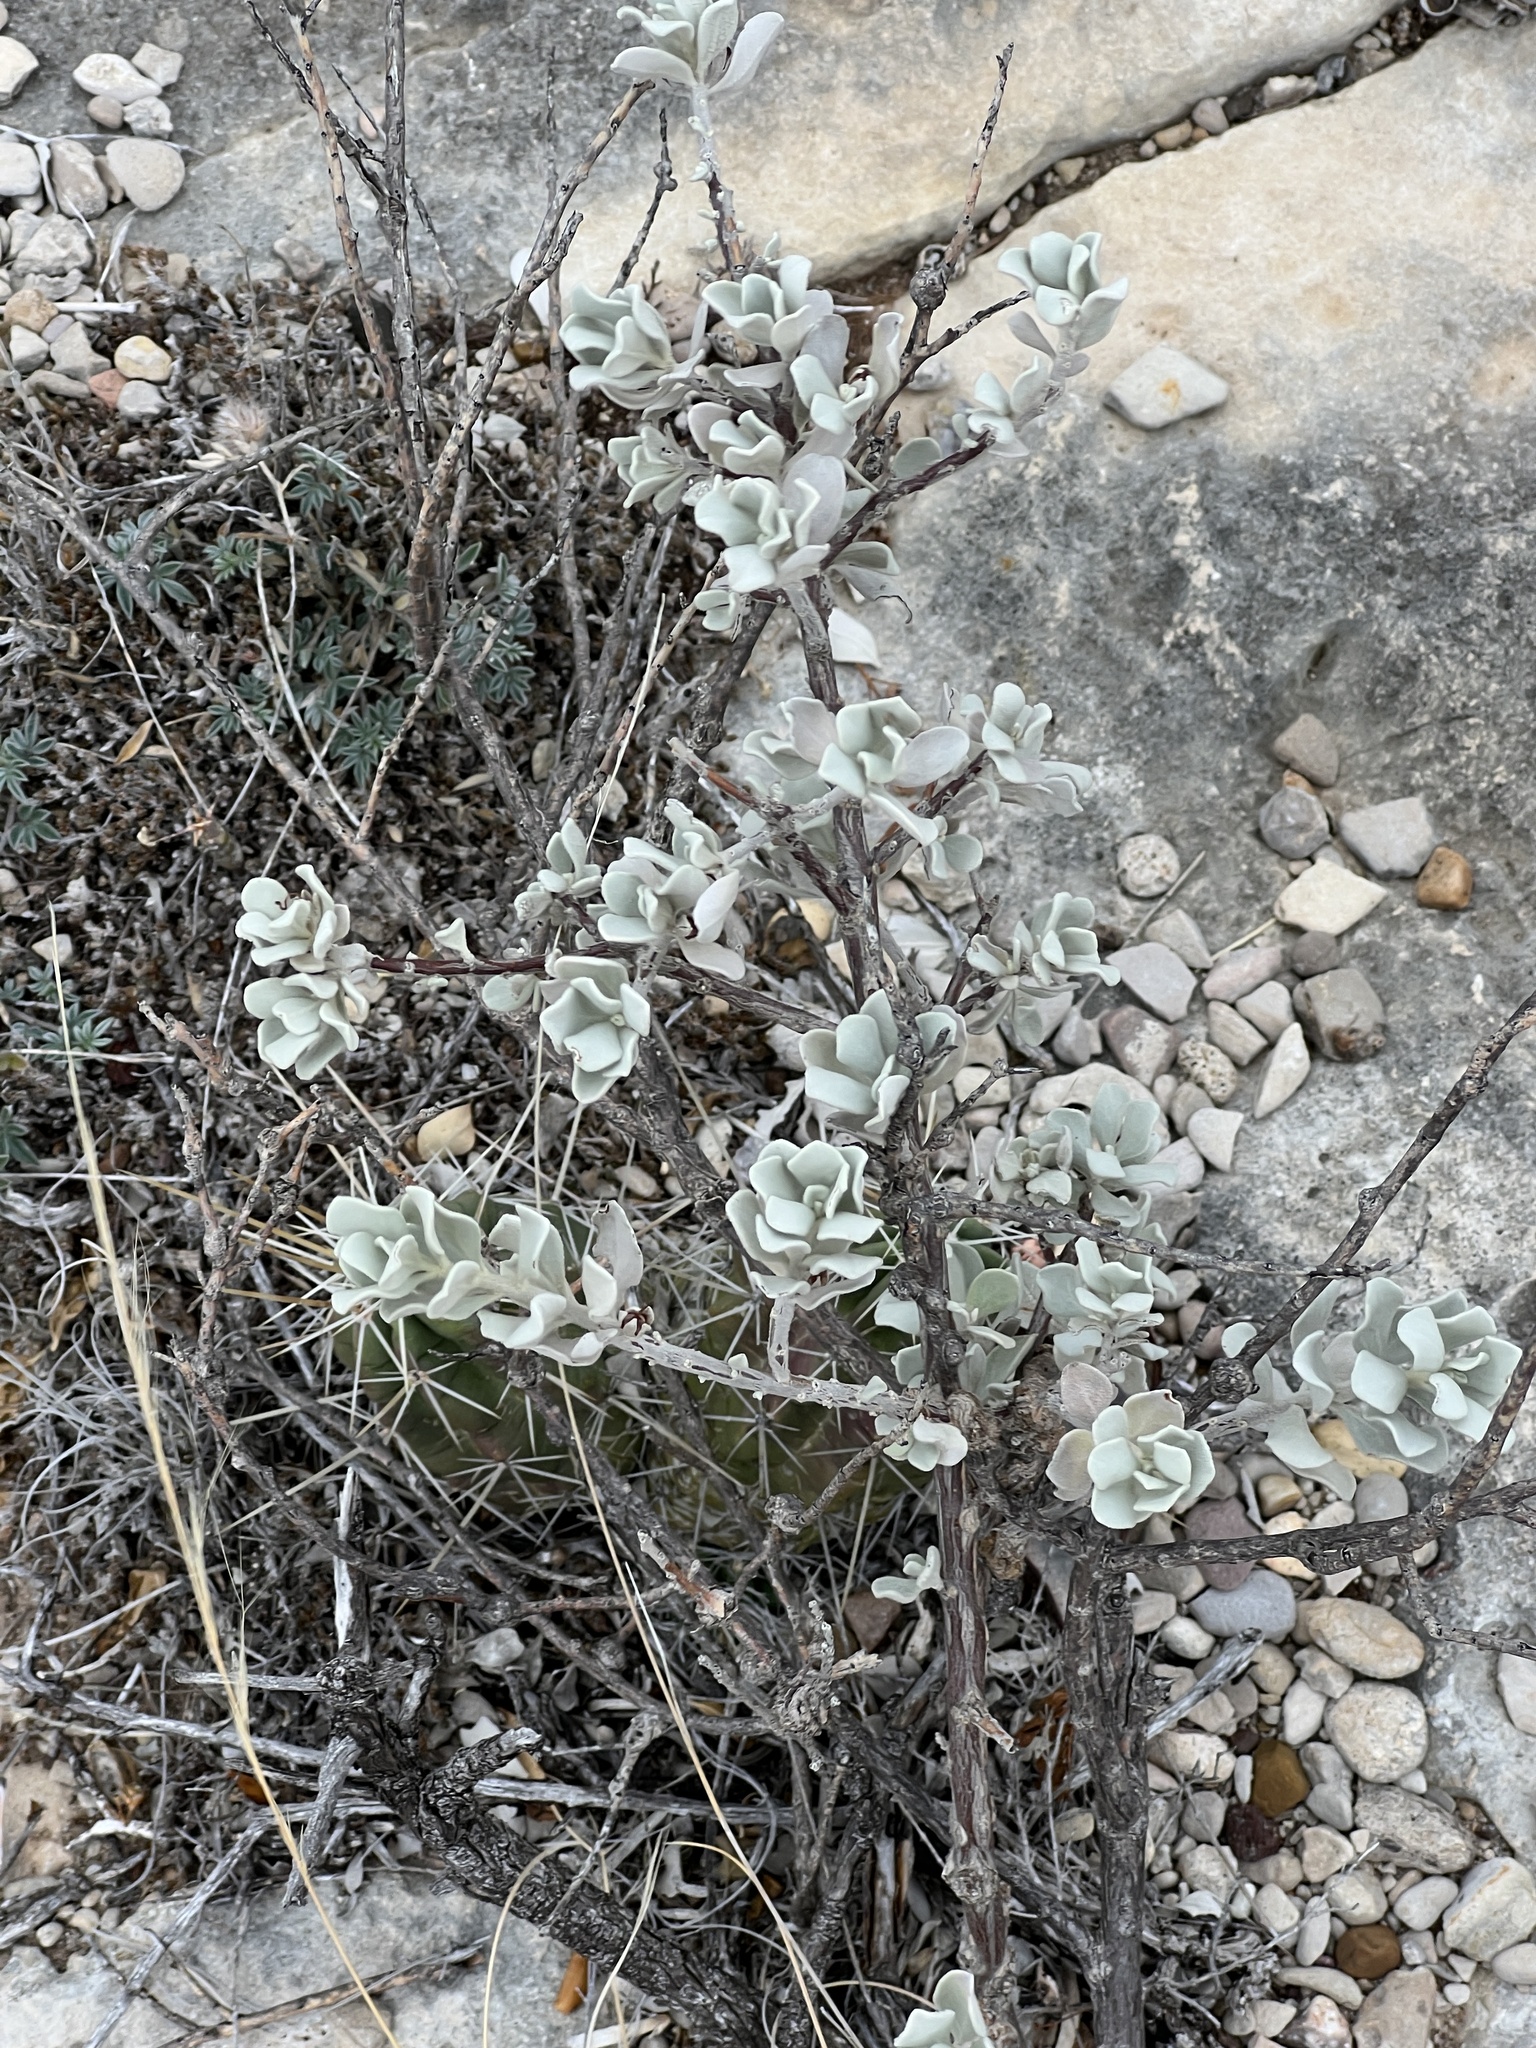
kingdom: Plantae
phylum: Tracheophyta
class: Magnoliopsida
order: Lamiales
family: Scrophulariaceae
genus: Leucophyllum
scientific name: Leucophyllum frutescens
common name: Texas silverleaf
